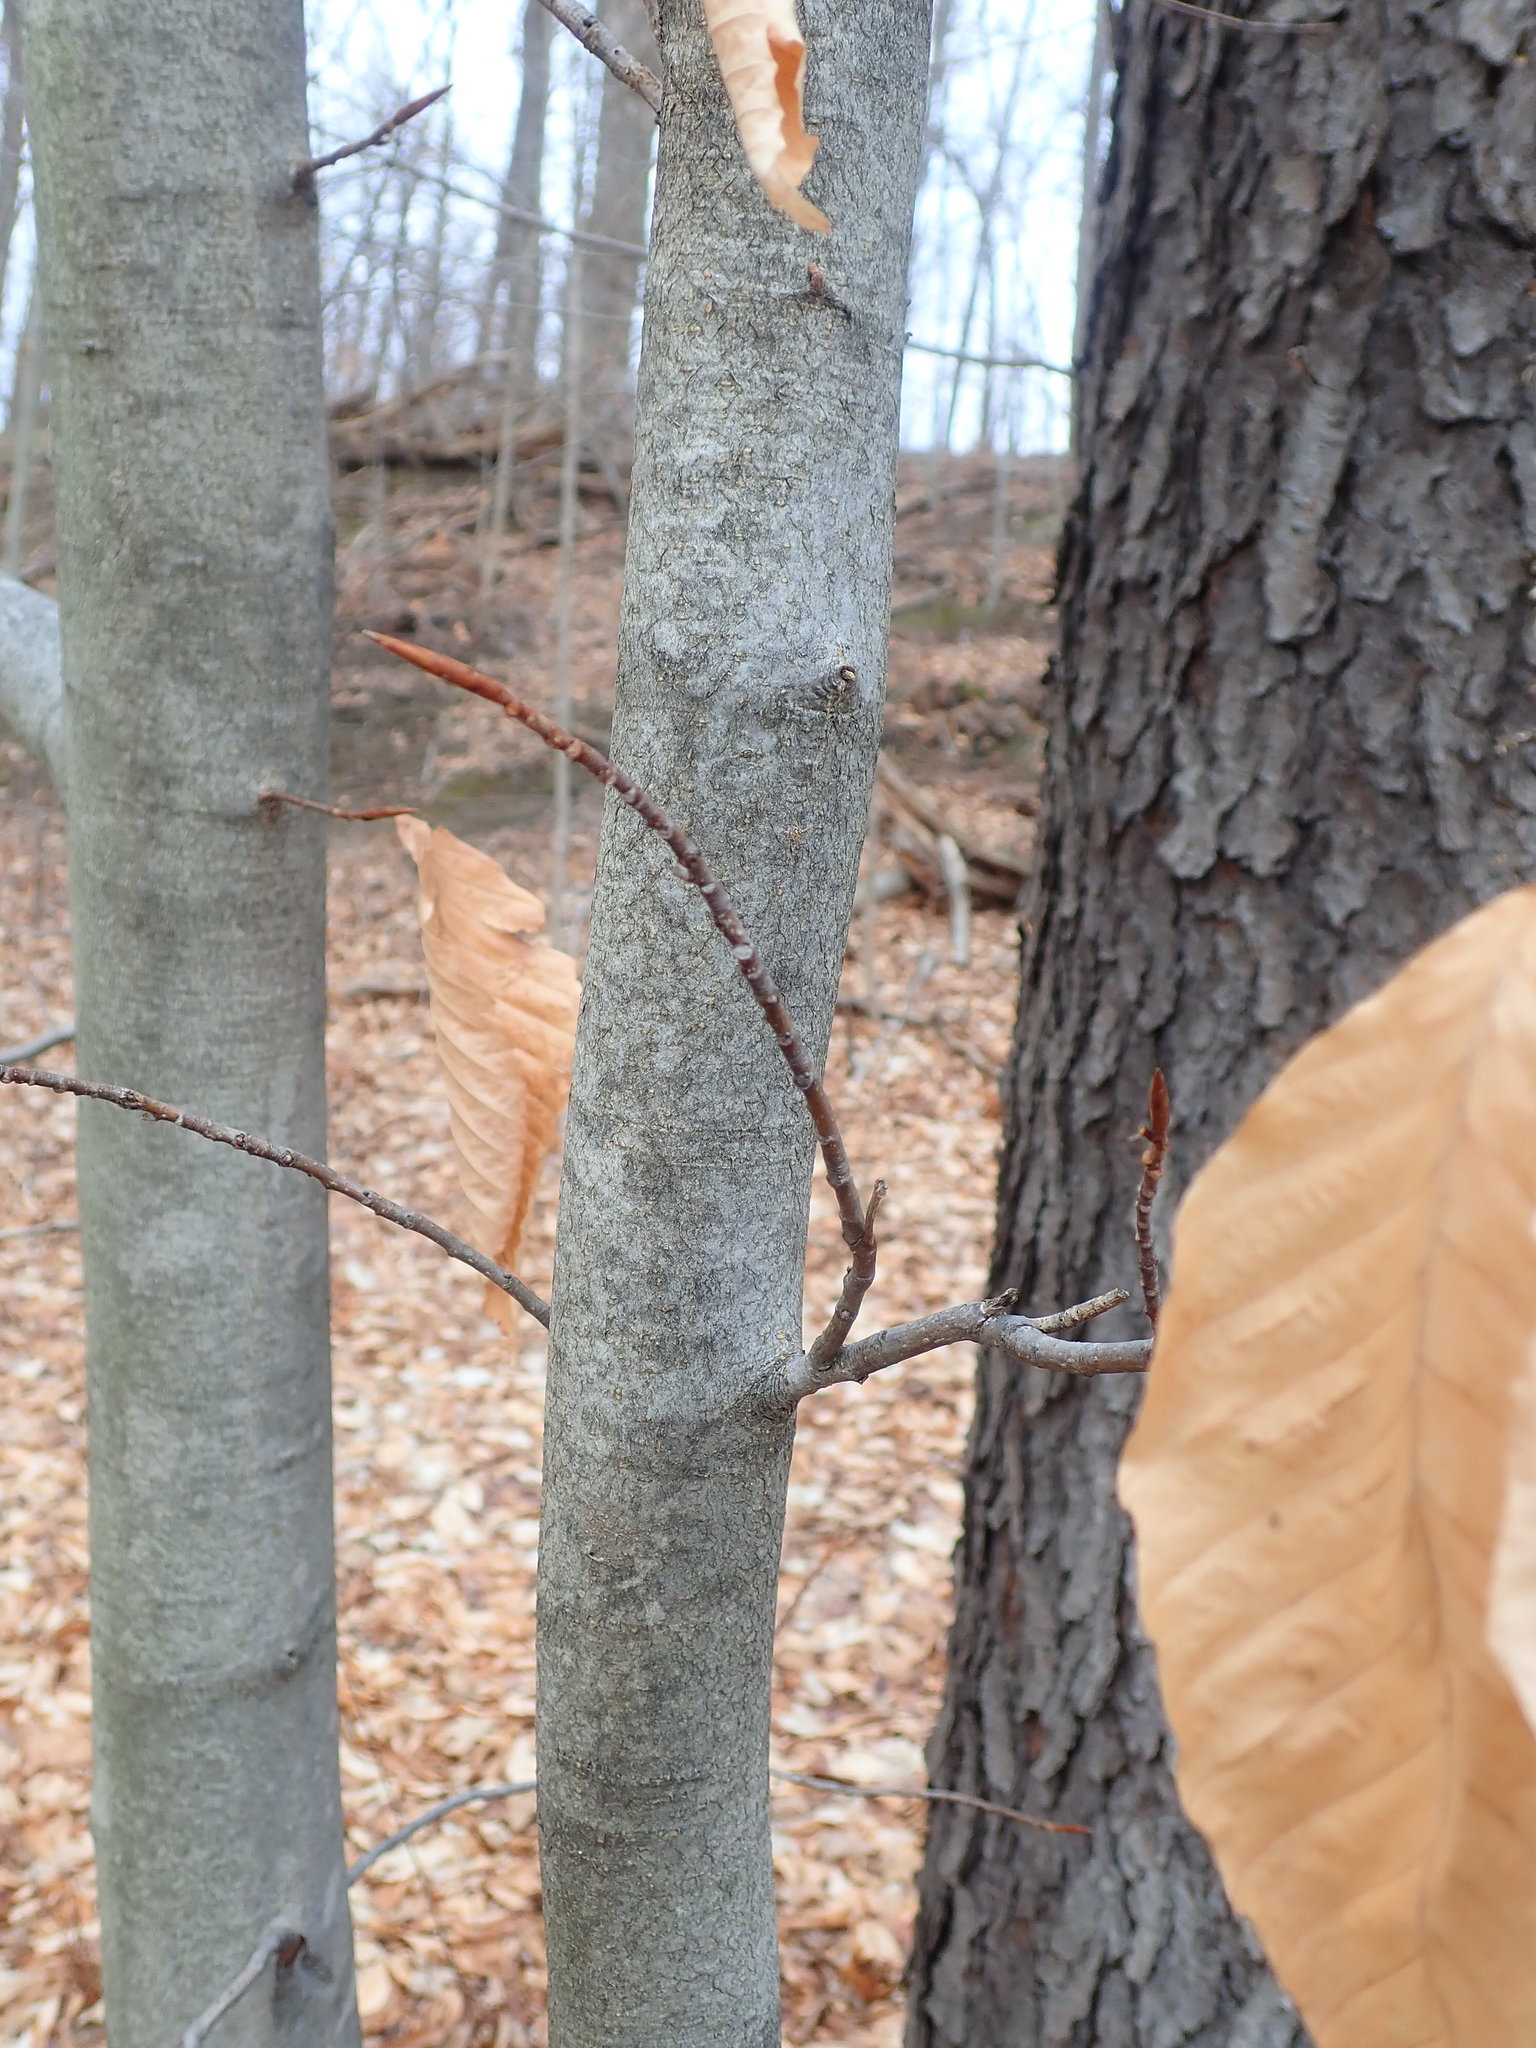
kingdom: Plantae
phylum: Tracheophyta
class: Magnoliopsida
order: Fagales
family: Fagaceae
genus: Fagus
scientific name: Fagus grandifolia
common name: American beech
